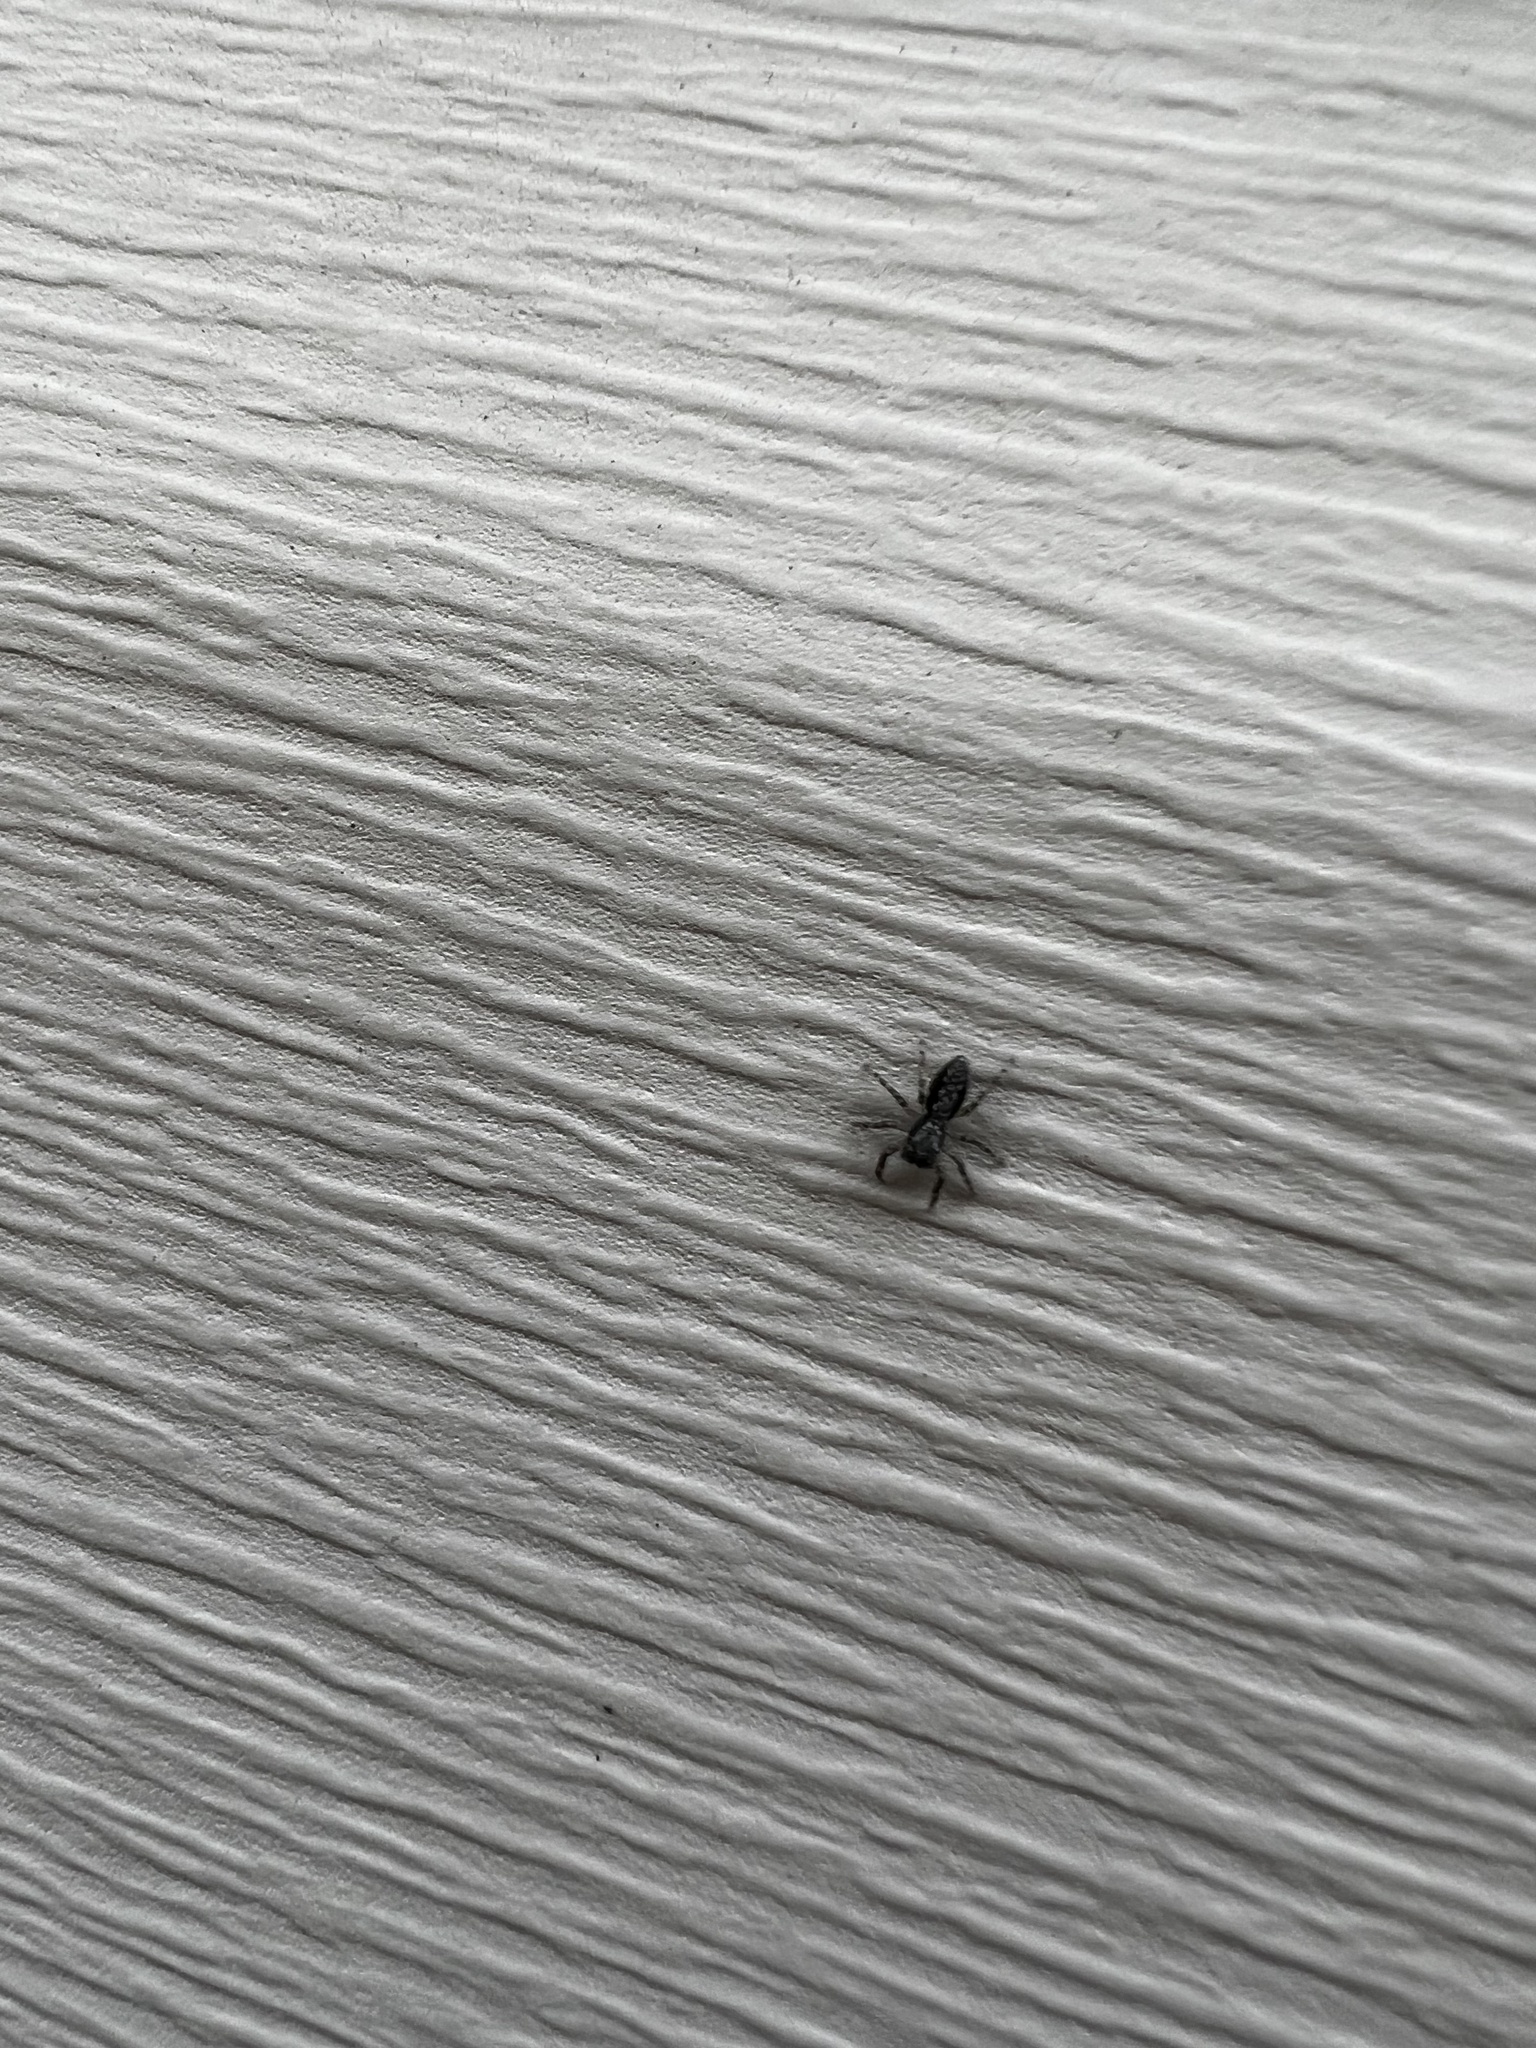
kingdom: Animalia
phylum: Arthropoda
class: Arachnida
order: Araneae
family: Salticidae
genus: Platycryptus
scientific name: Platycryptus californicus
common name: Jumping spiders
